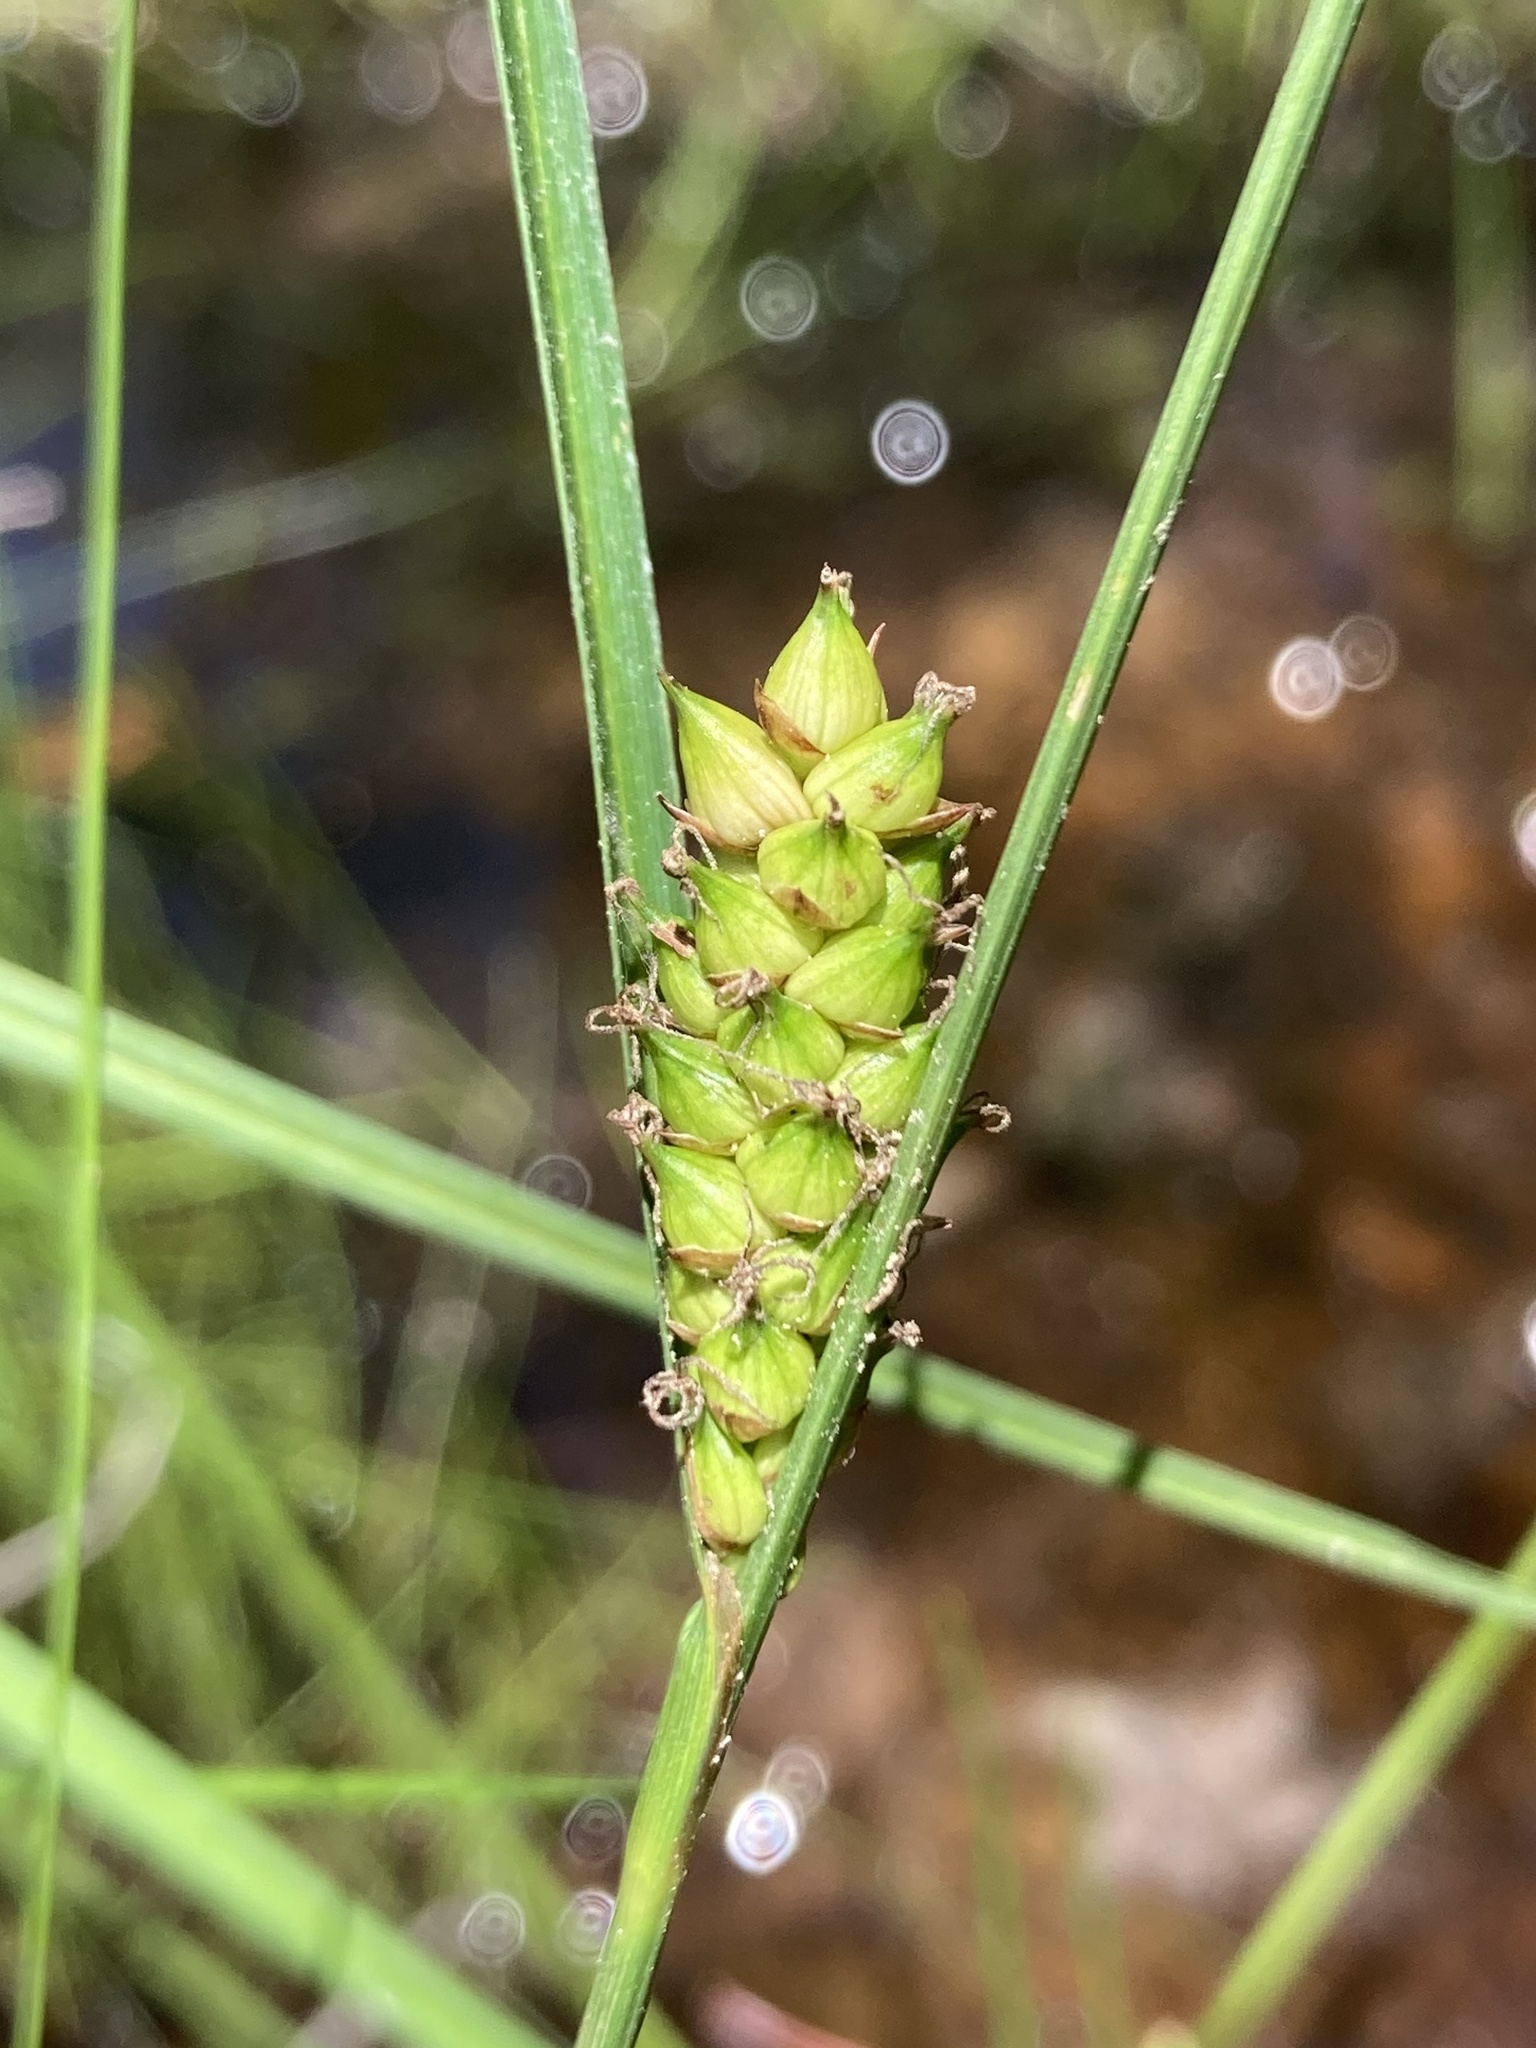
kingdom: Plantae
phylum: Tracheophyta
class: Liliopsida
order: Poales
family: Cyperaceae
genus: Carex
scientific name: Carex striata
